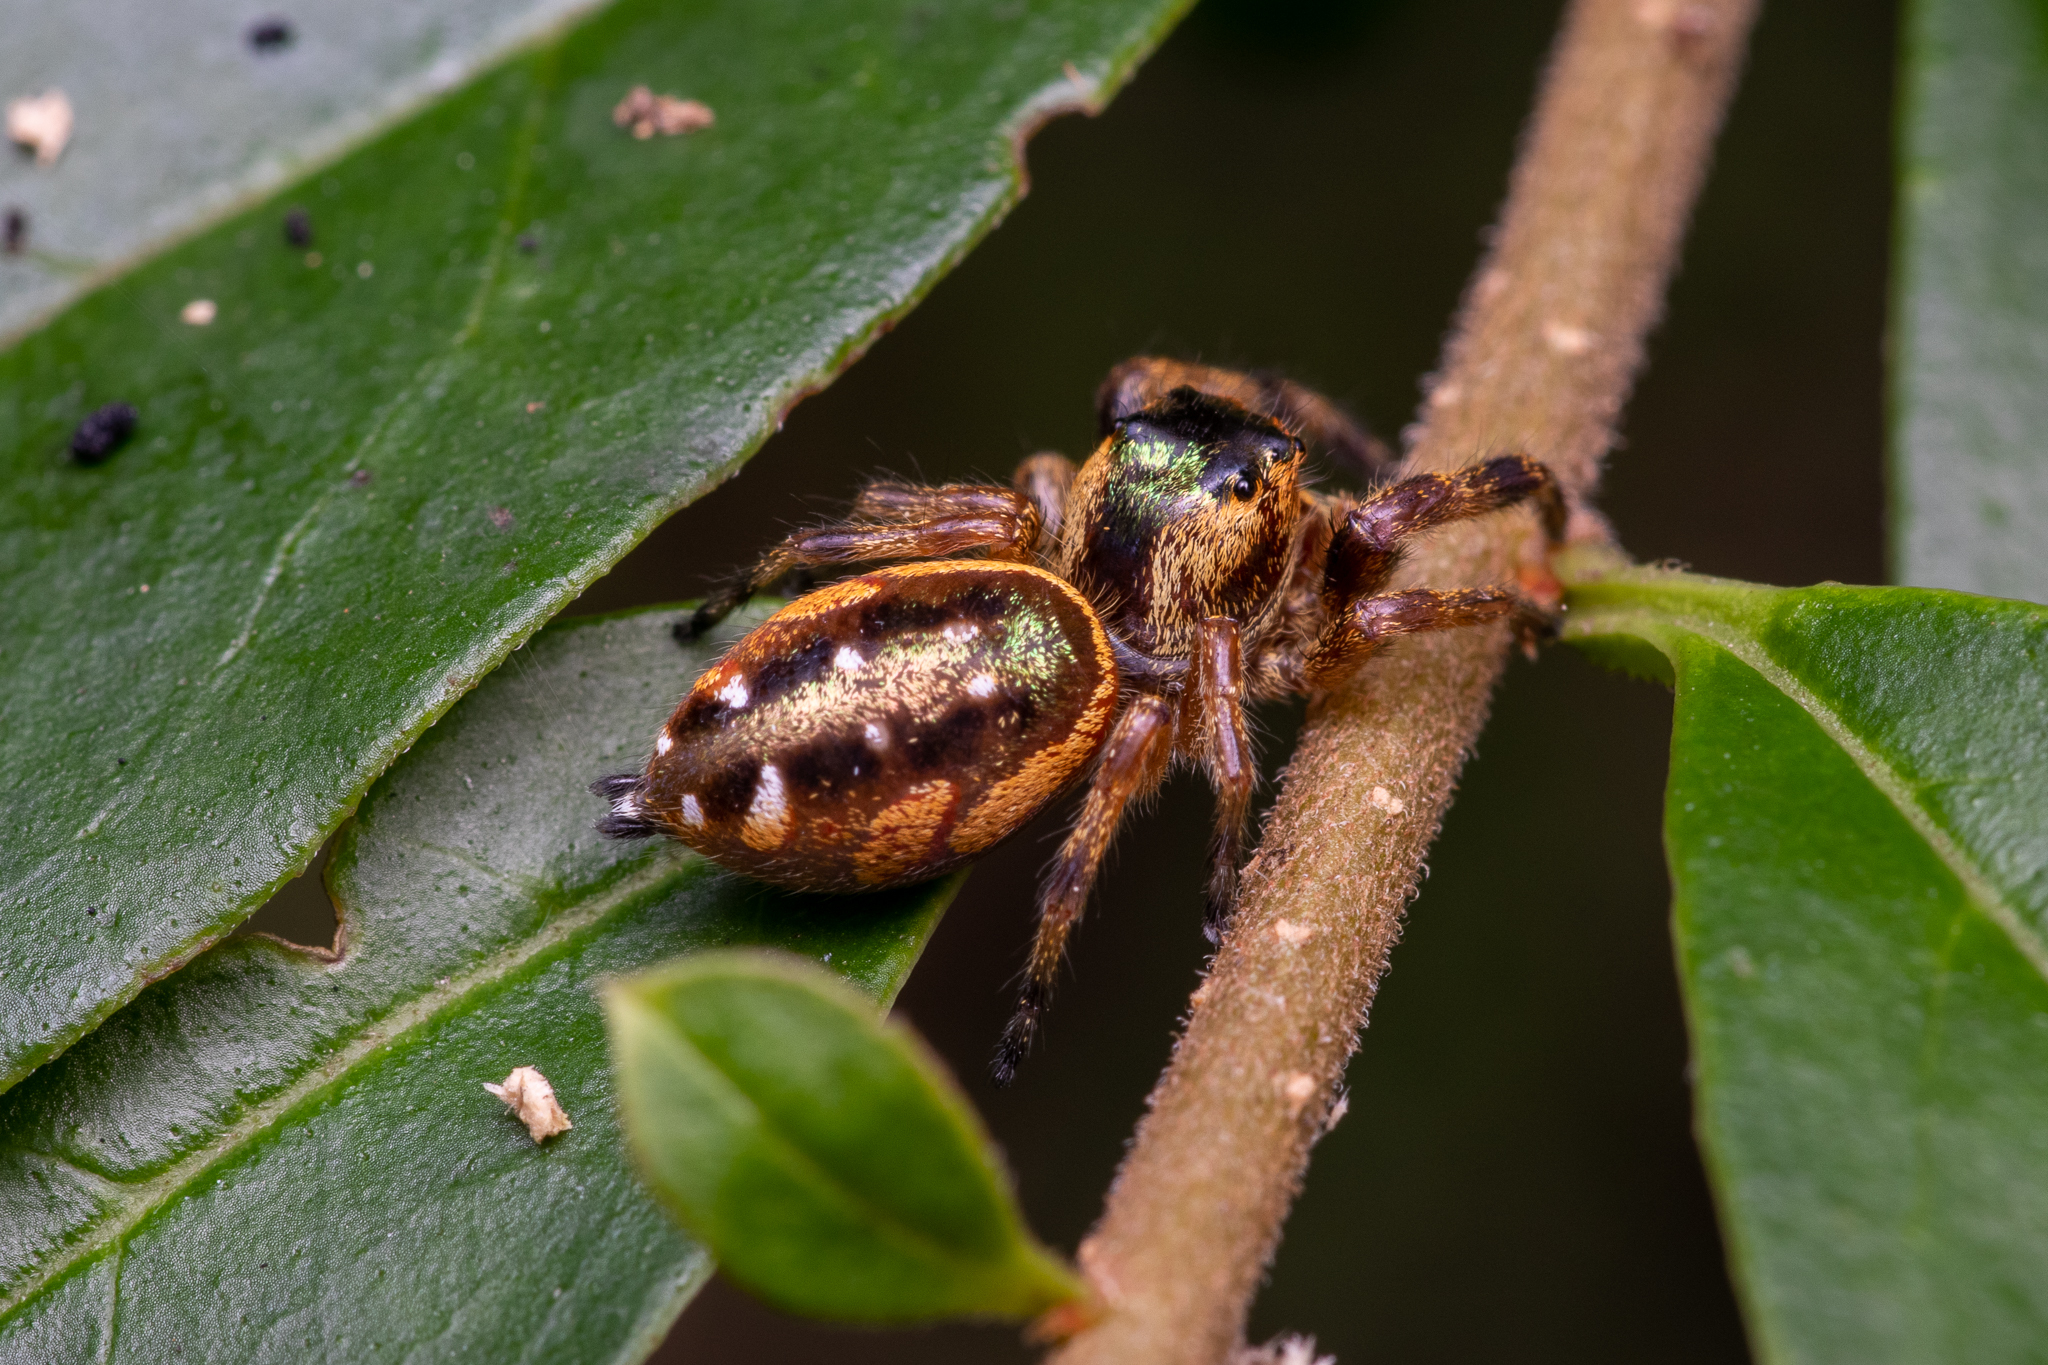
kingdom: Animalia
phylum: Arthropoda
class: Arachnida
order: Araneae
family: Salticidae
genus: Paraphidippus
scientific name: Paraphidippus aurantius
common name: Jumping spiders
